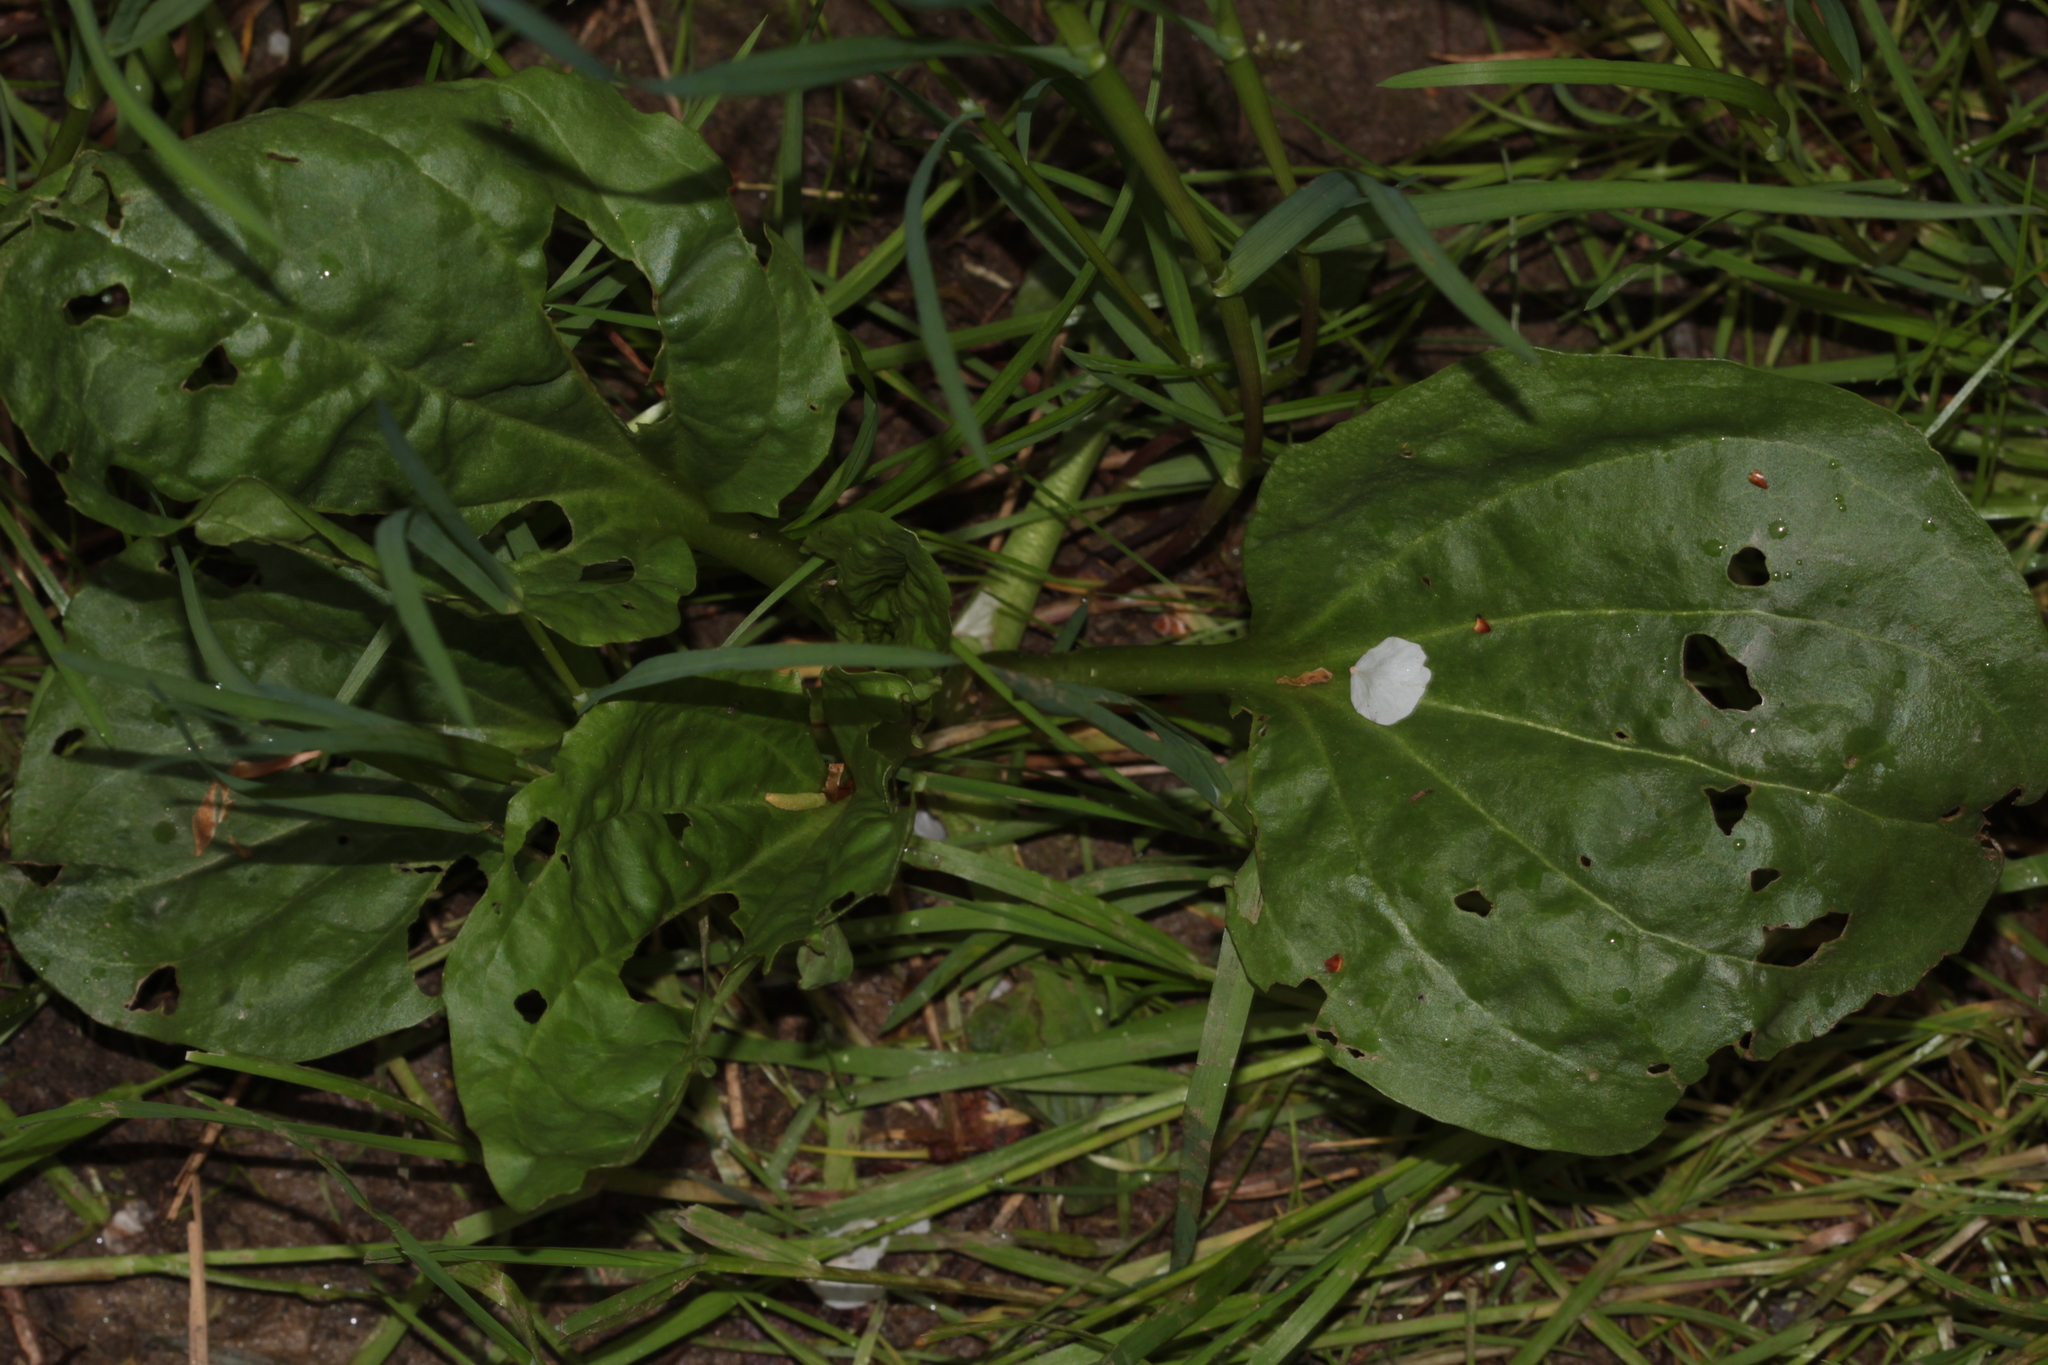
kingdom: Plantae
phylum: Tracheophyta
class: Magnoliopsida
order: Lamiales
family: Plantaginaceae
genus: Plantago
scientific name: Plantago major
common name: Common plantain
